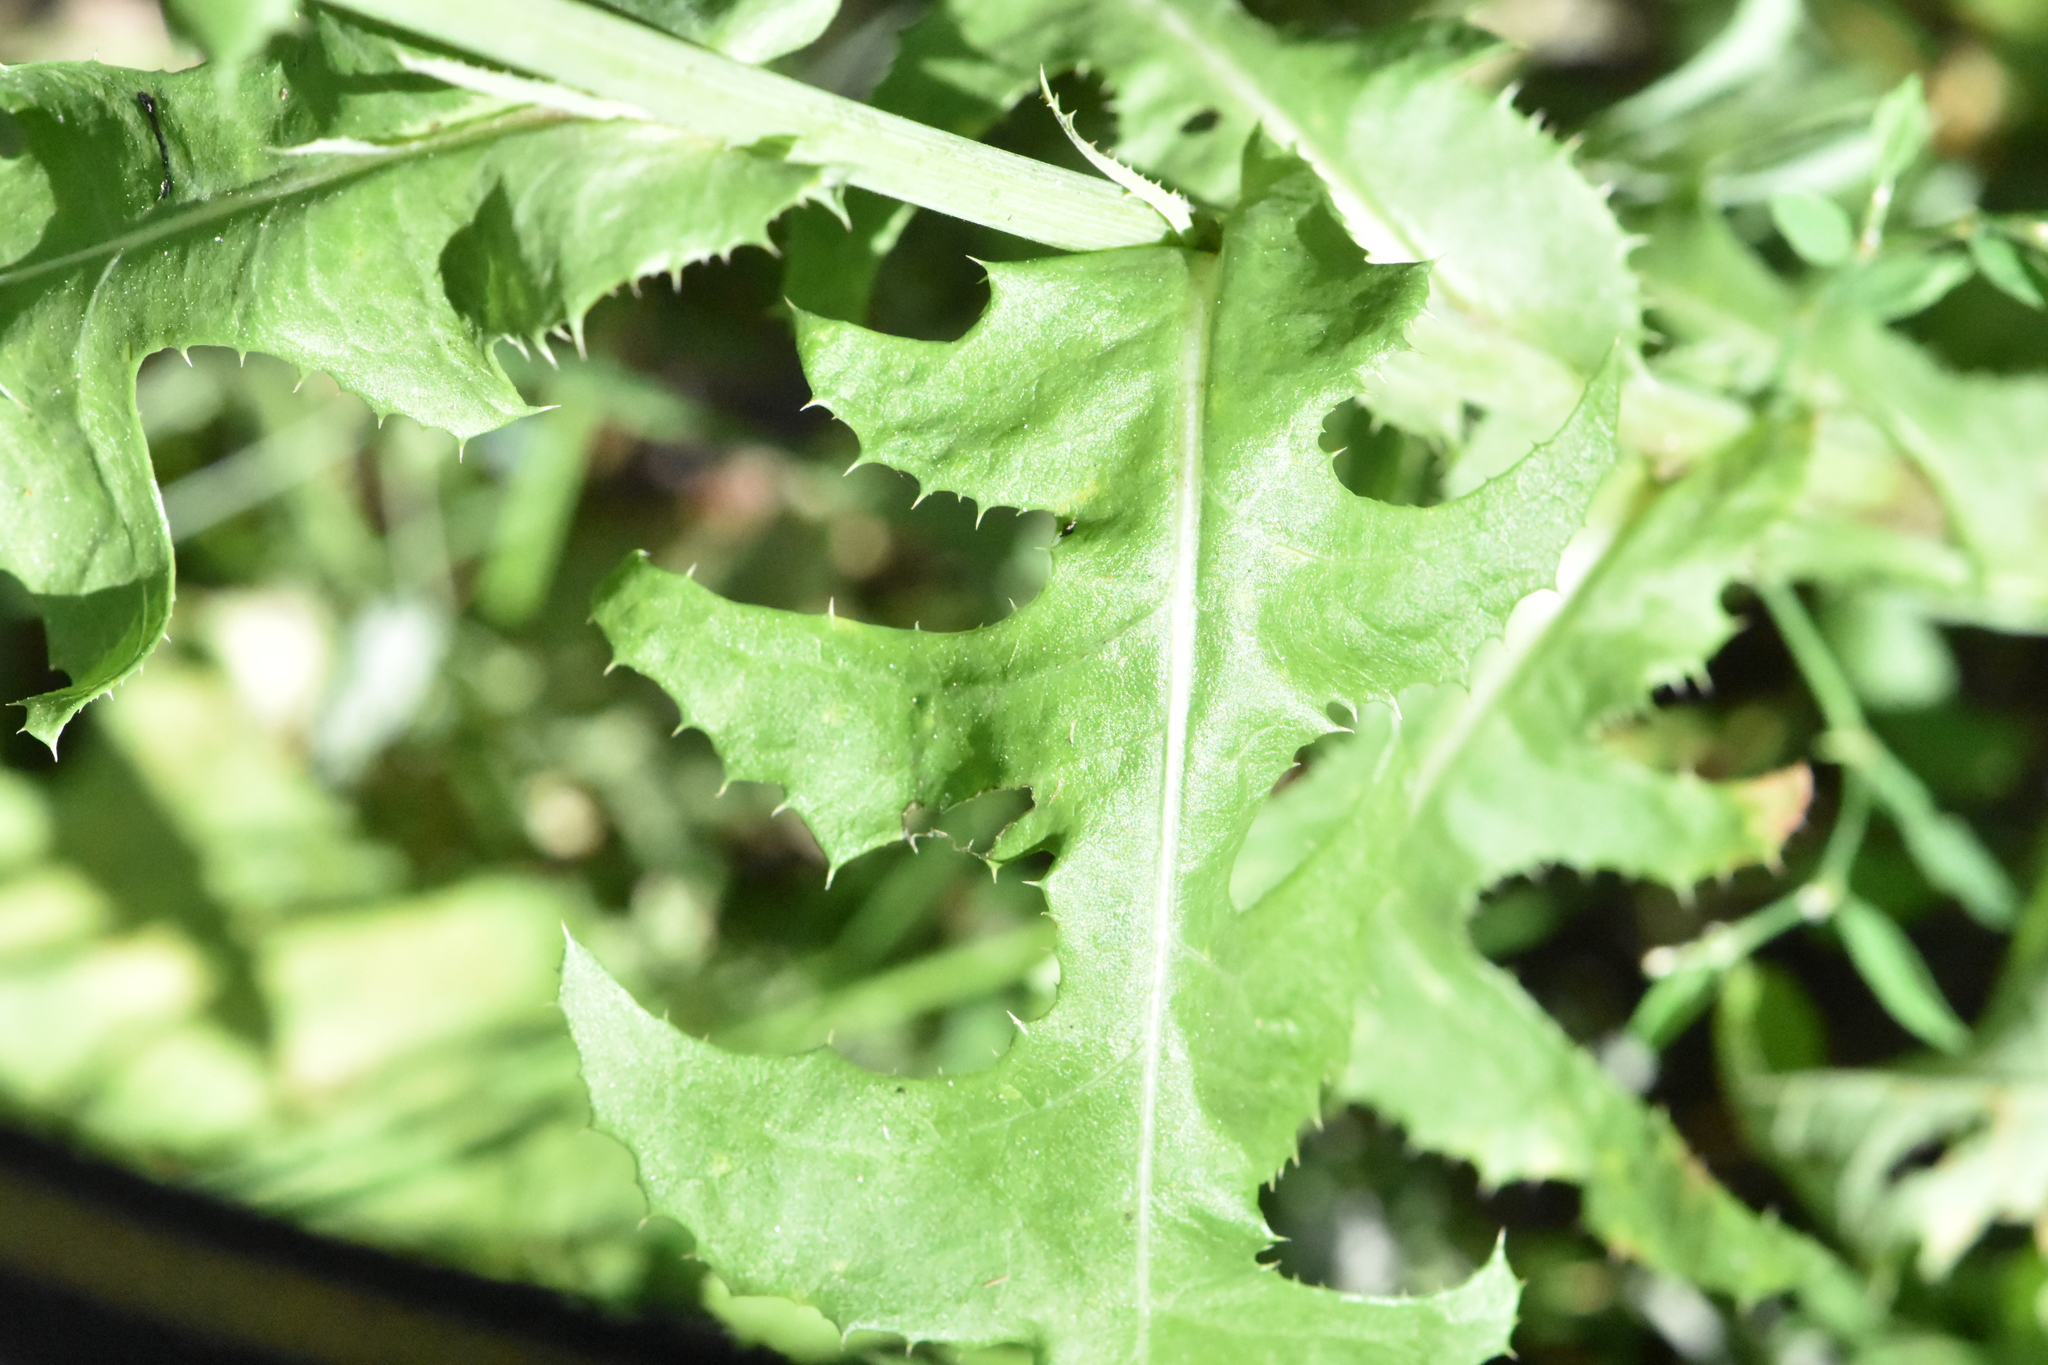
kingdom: Plantae
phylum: Tracheophyta
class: Magnoliopsida
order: Asterales
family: Asteraceae
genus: Sonchus
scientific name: Sonchus arvensis
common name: Perennial sow-thistle
